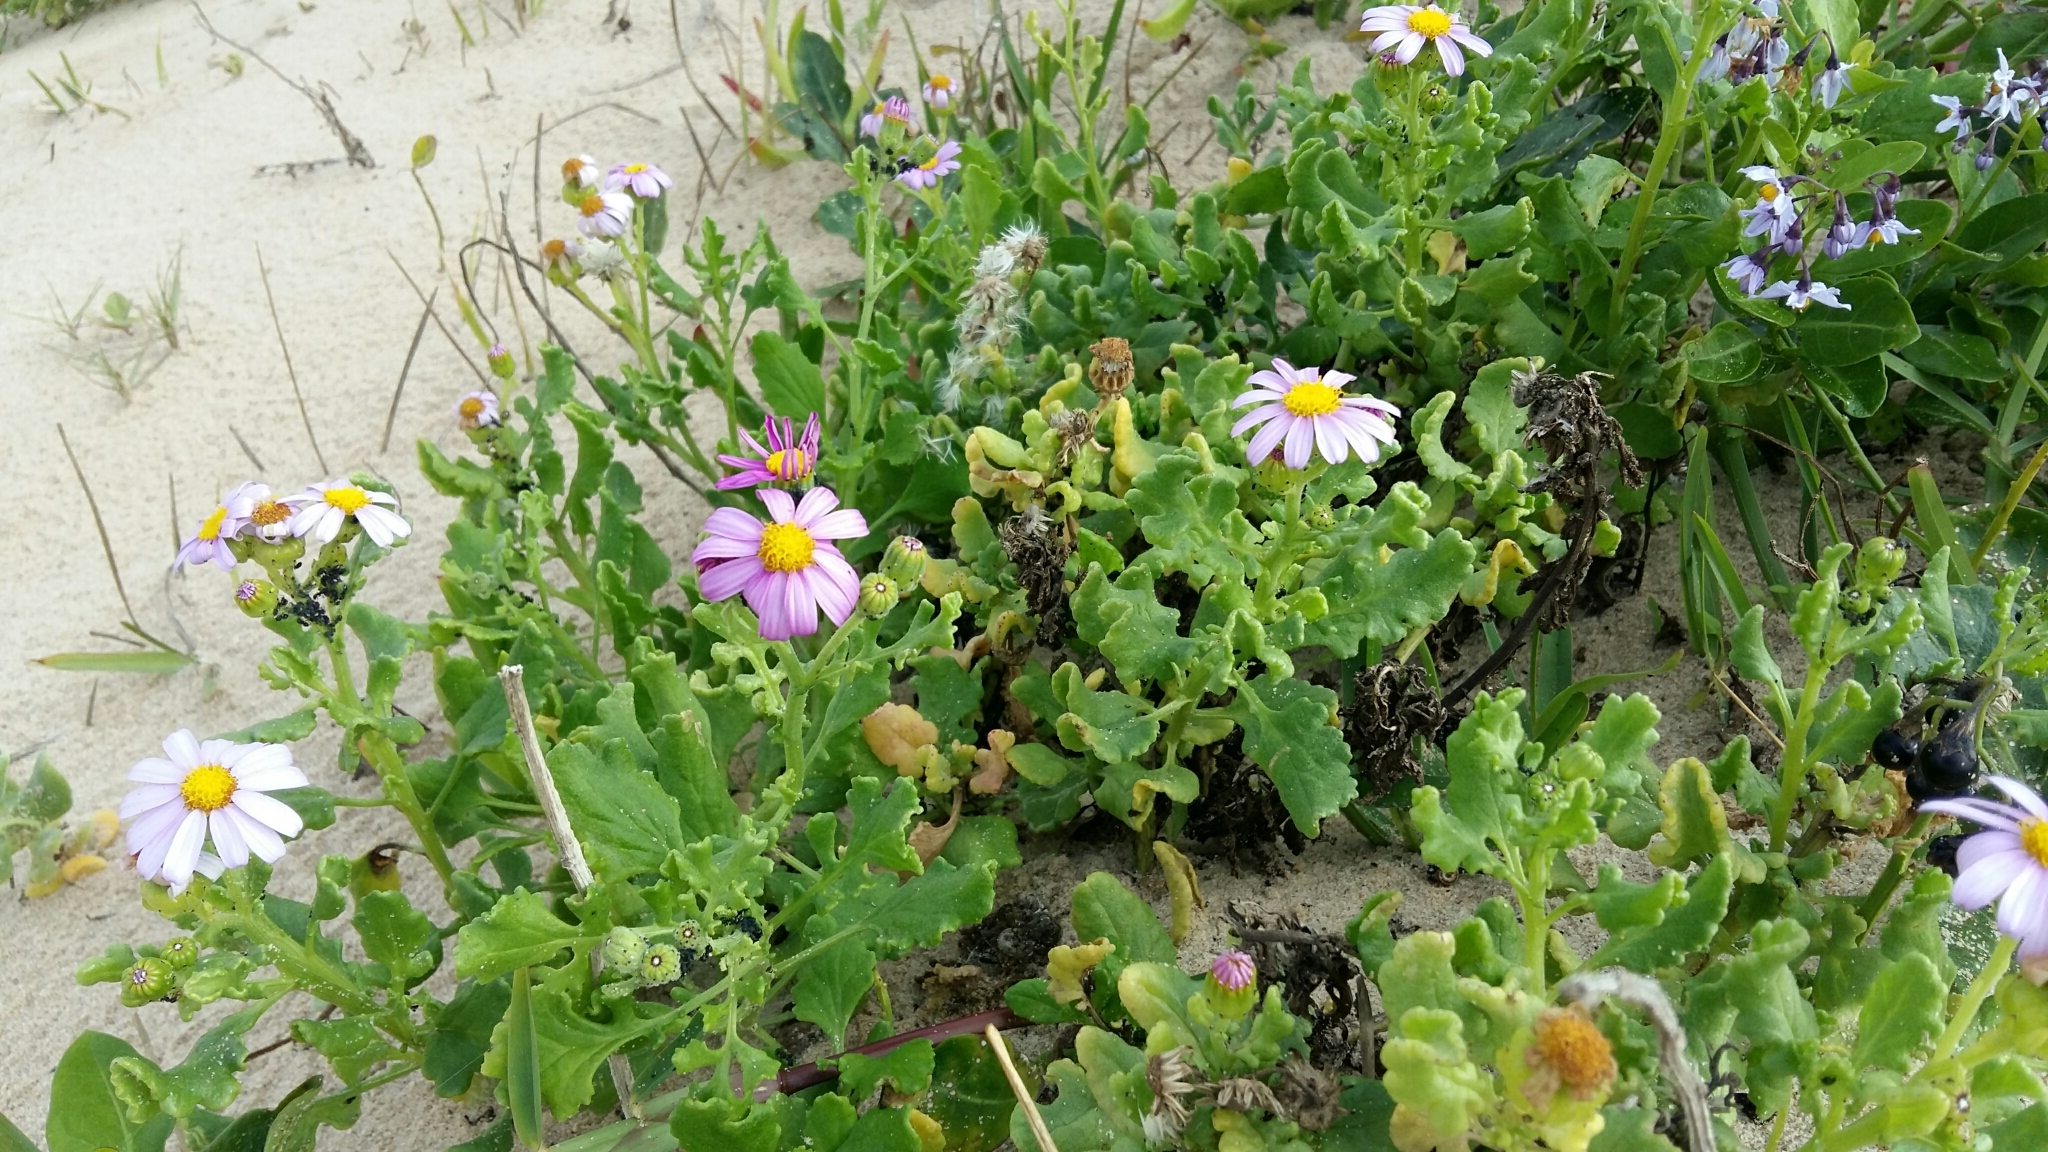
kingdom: Plantae
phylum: Tracheophyta
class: Magnoliopsida
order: Asterales
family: Asteraceae
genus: Senecio
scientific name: Senecio elegans
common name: Purple groundsel
